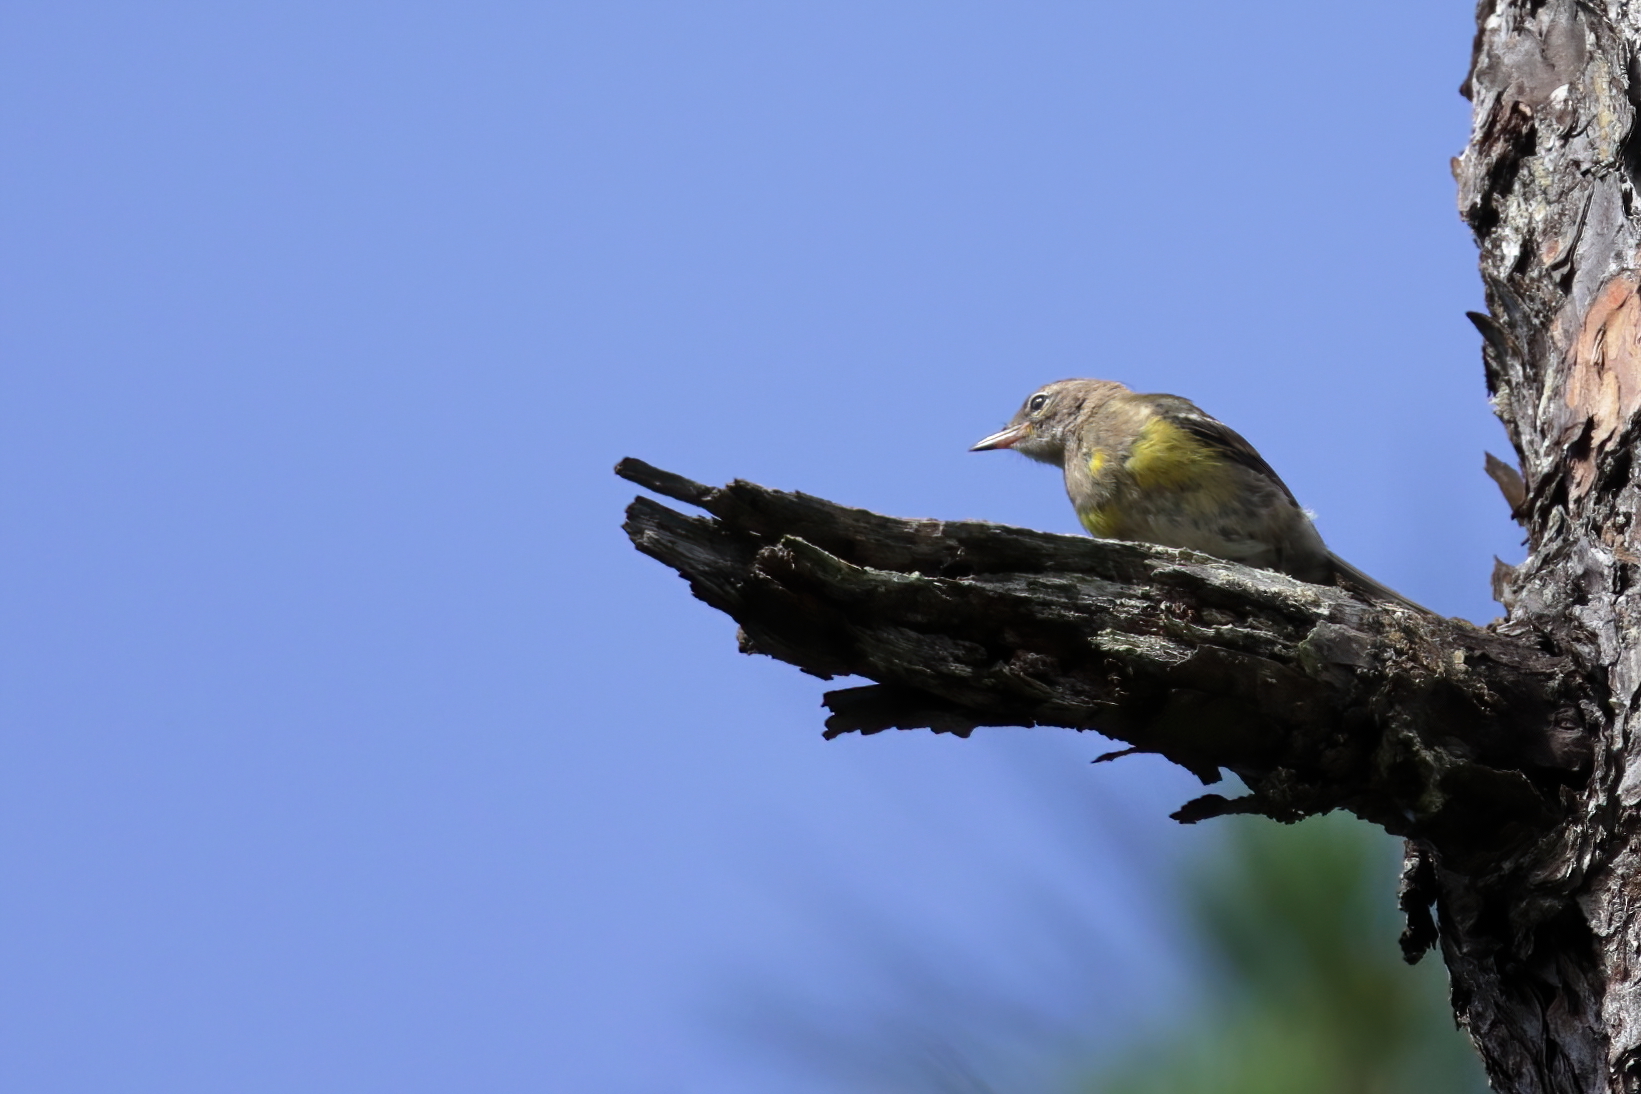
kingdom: Animalia
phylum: Chordata
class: Aves
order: Passeriformes
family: Parulidae
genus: Setophaga
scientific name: Setophaga pinus
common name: Pine warbler
